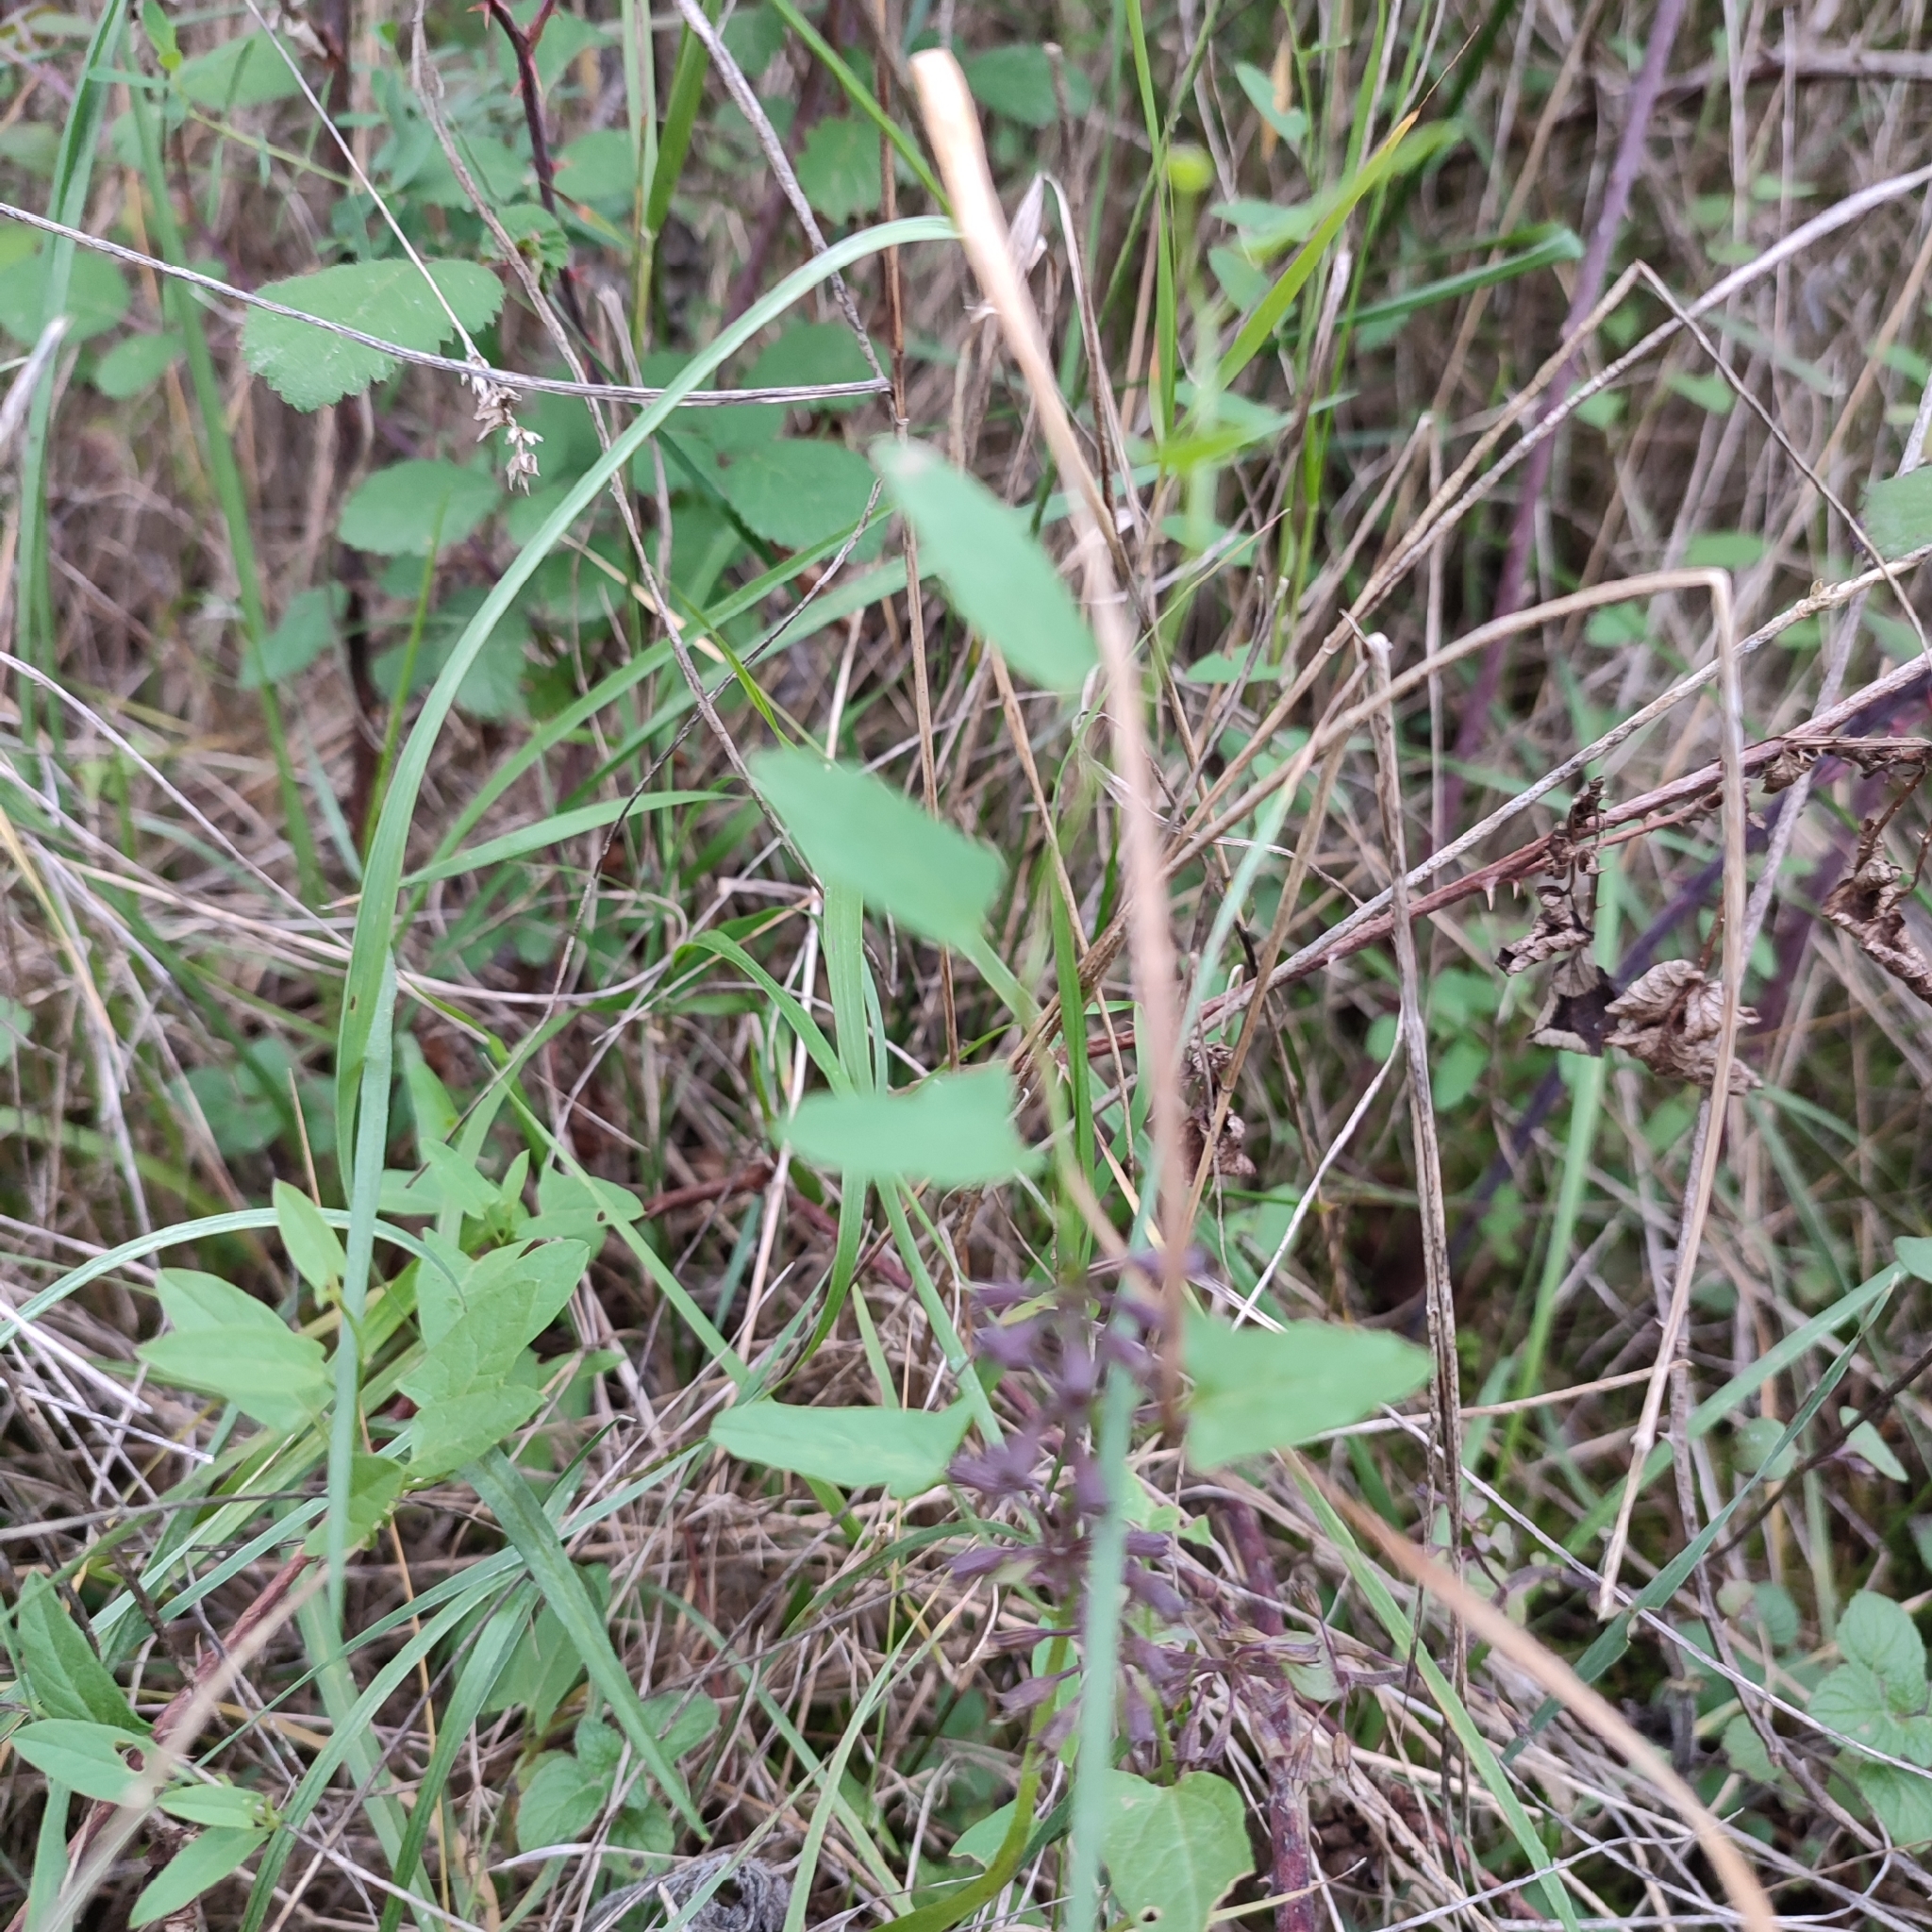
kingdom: Plantae
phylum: Tracheophyta
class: Magnoliopsida
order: Solanales
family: Convolvulaceae
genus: Convolvulus
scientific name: Convolvulus arvensis
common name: Field bindweed
